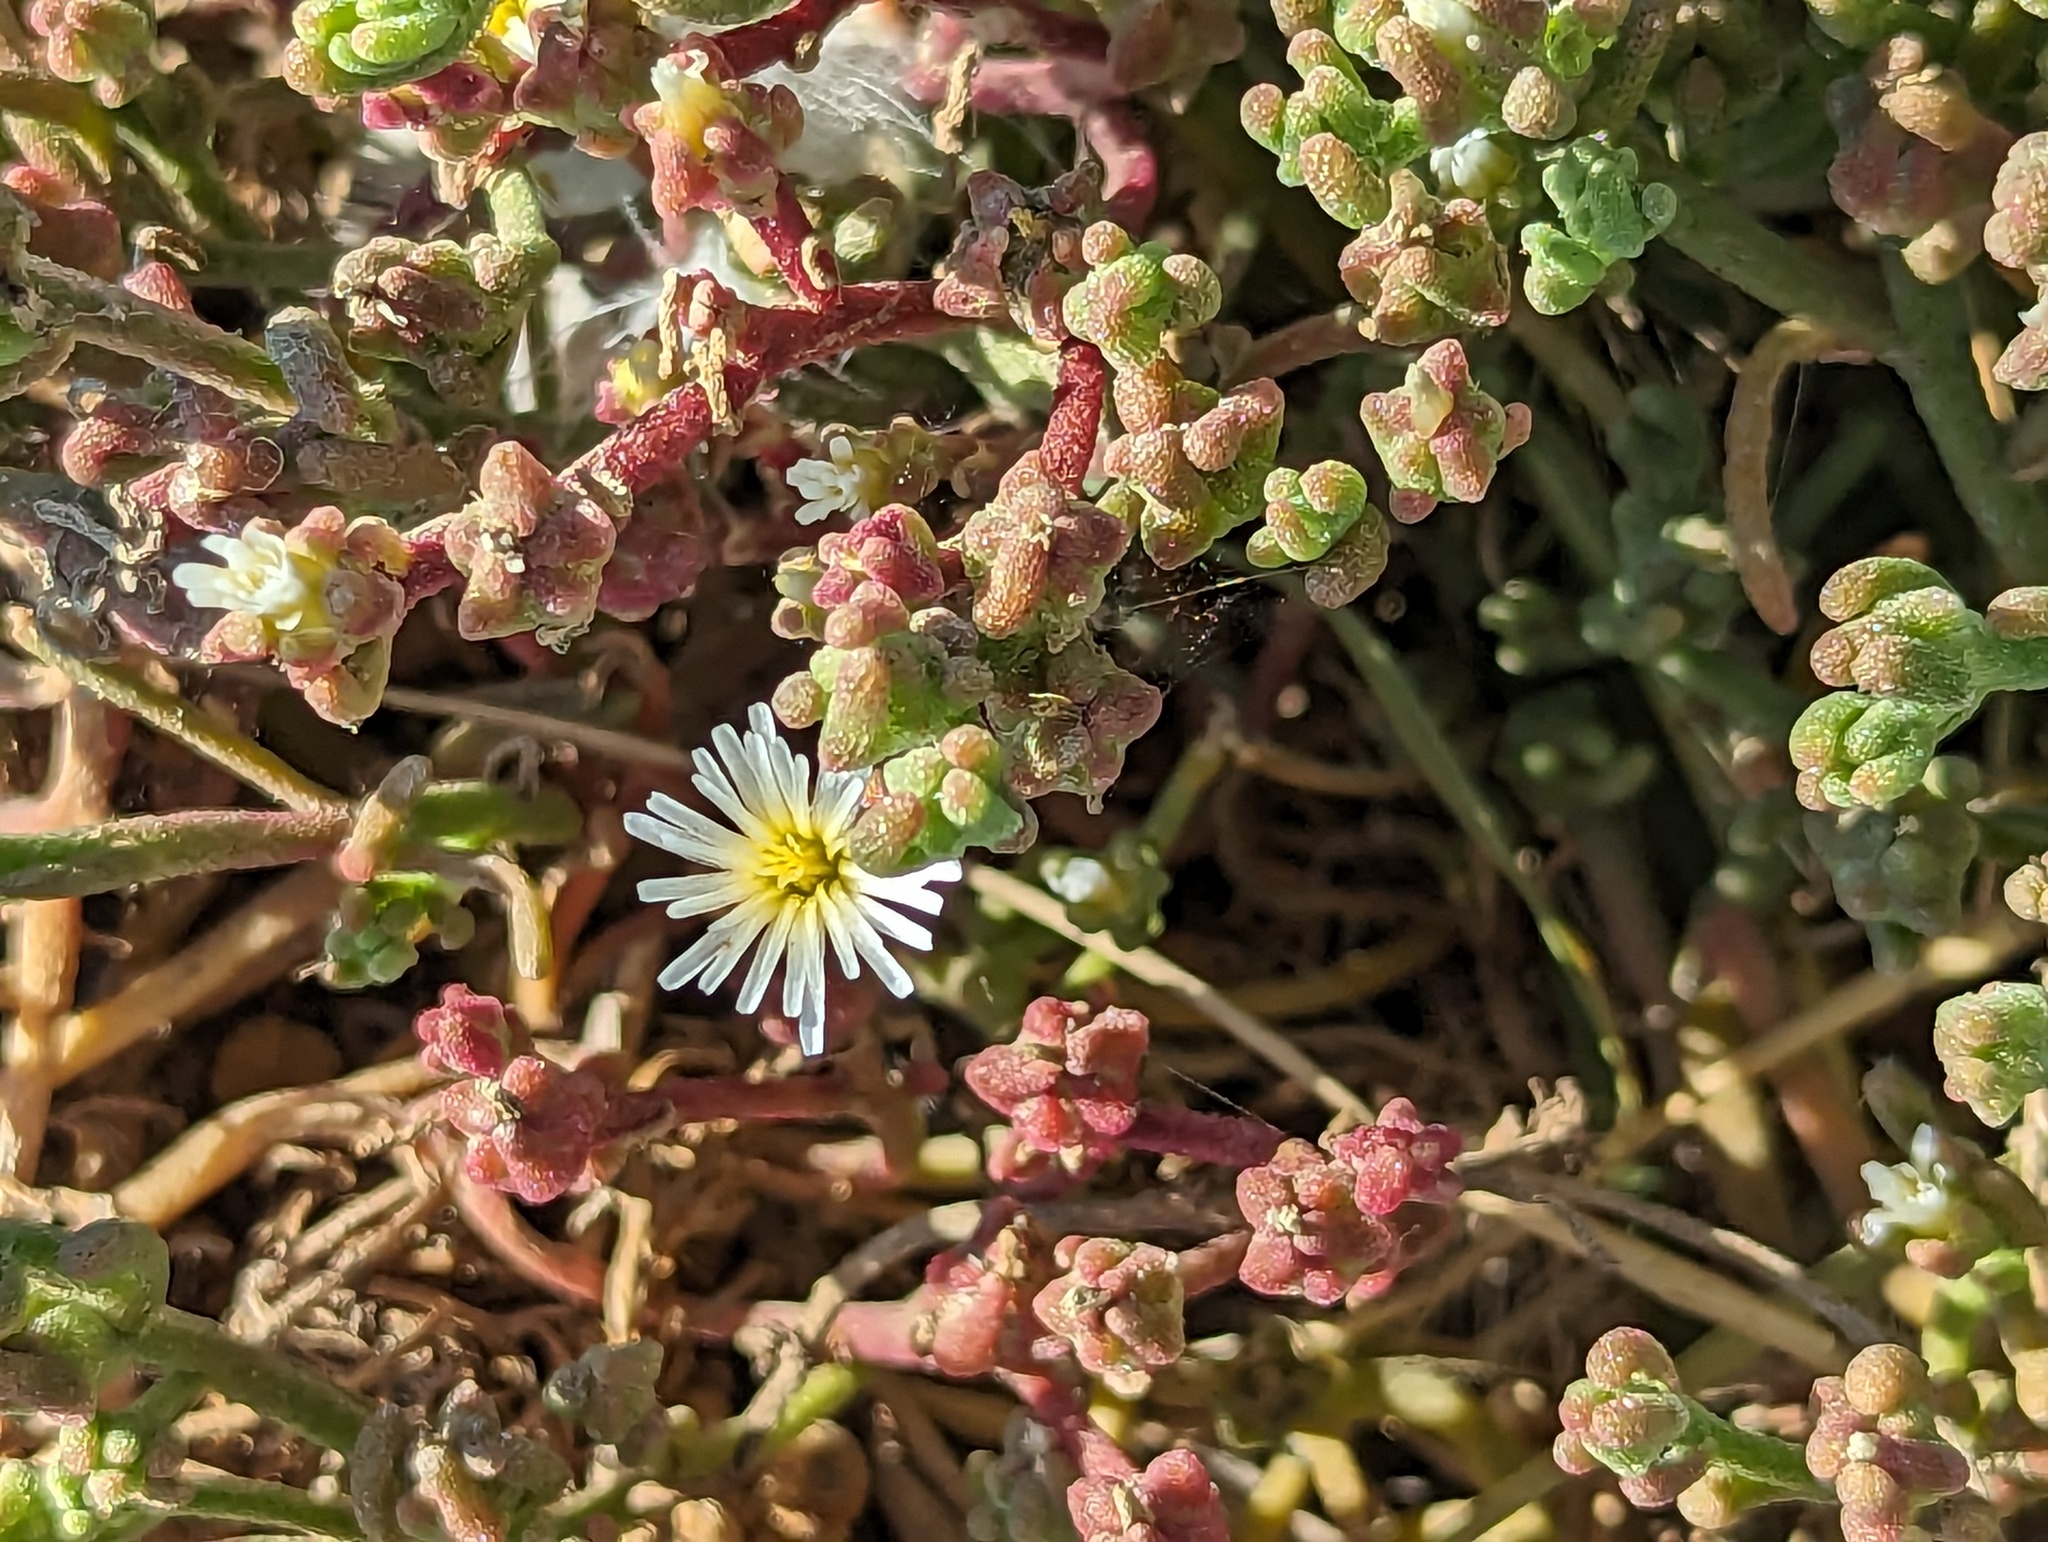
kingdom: Plantae
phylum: Tracheophyta
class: Magnoliopsida
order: Caryophyllales
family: Aizoaceae
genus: Mesembryanthemum
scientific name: Mesembryanthemum nodiflorum
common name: Slenderleaf iceplant
